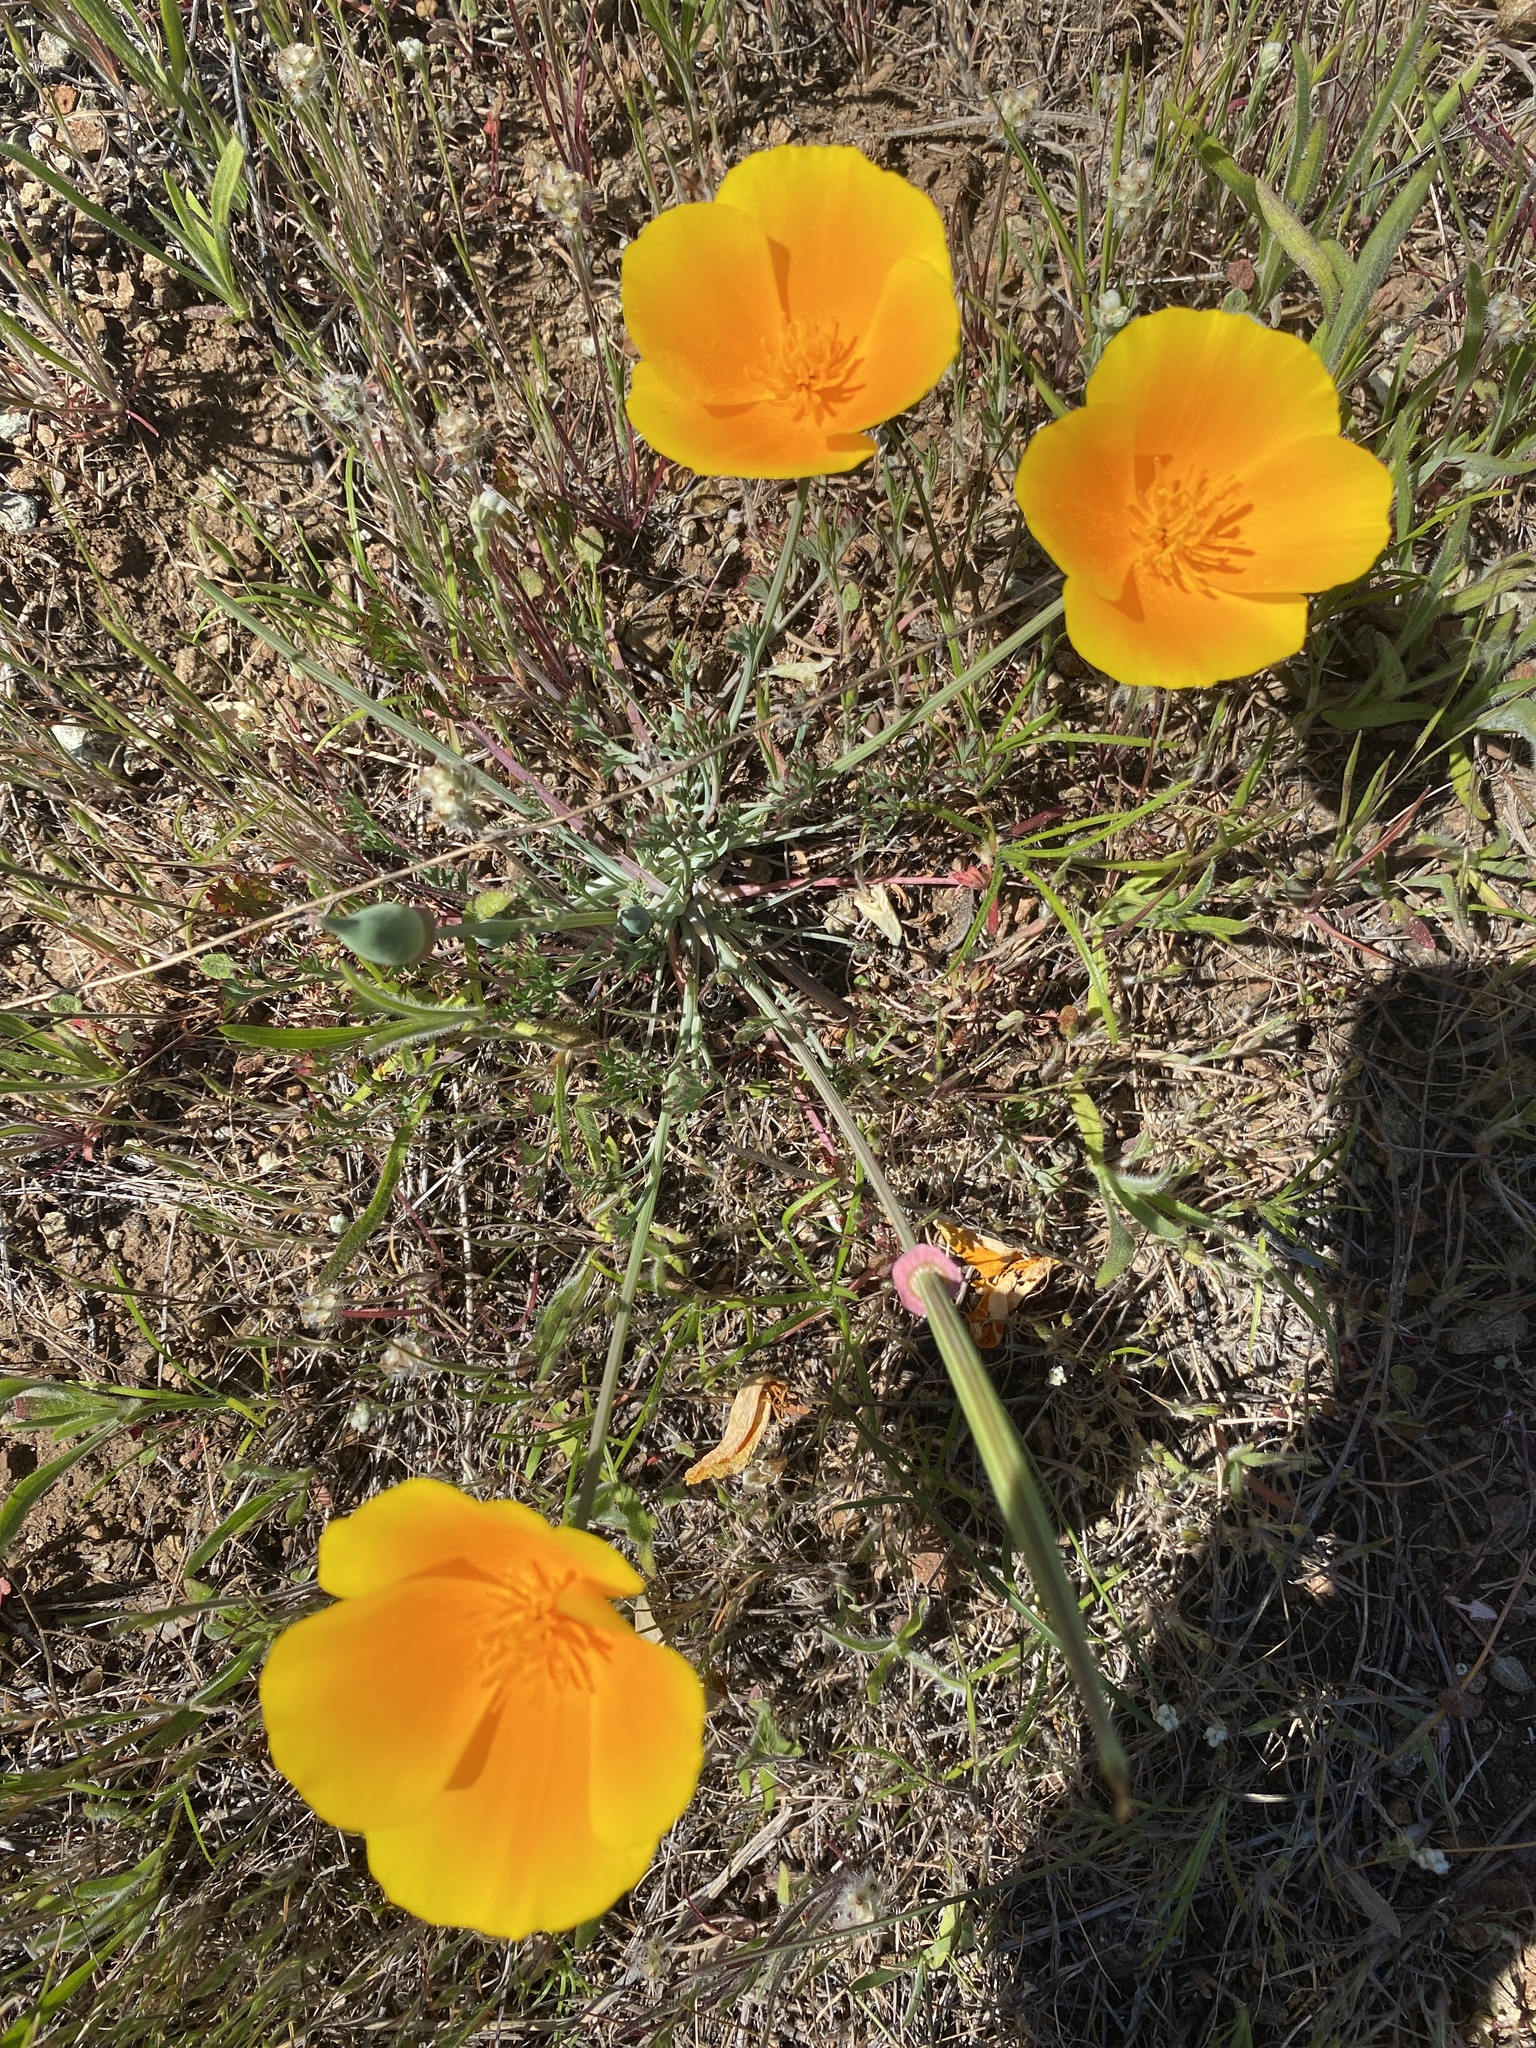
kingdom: Plantae
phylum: Tracheophyta
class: Magnoliopsida
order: Ranunculales
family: Papaveraceae
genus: Eschscholzia
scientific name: Eschscholzia californica
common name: California poppy
